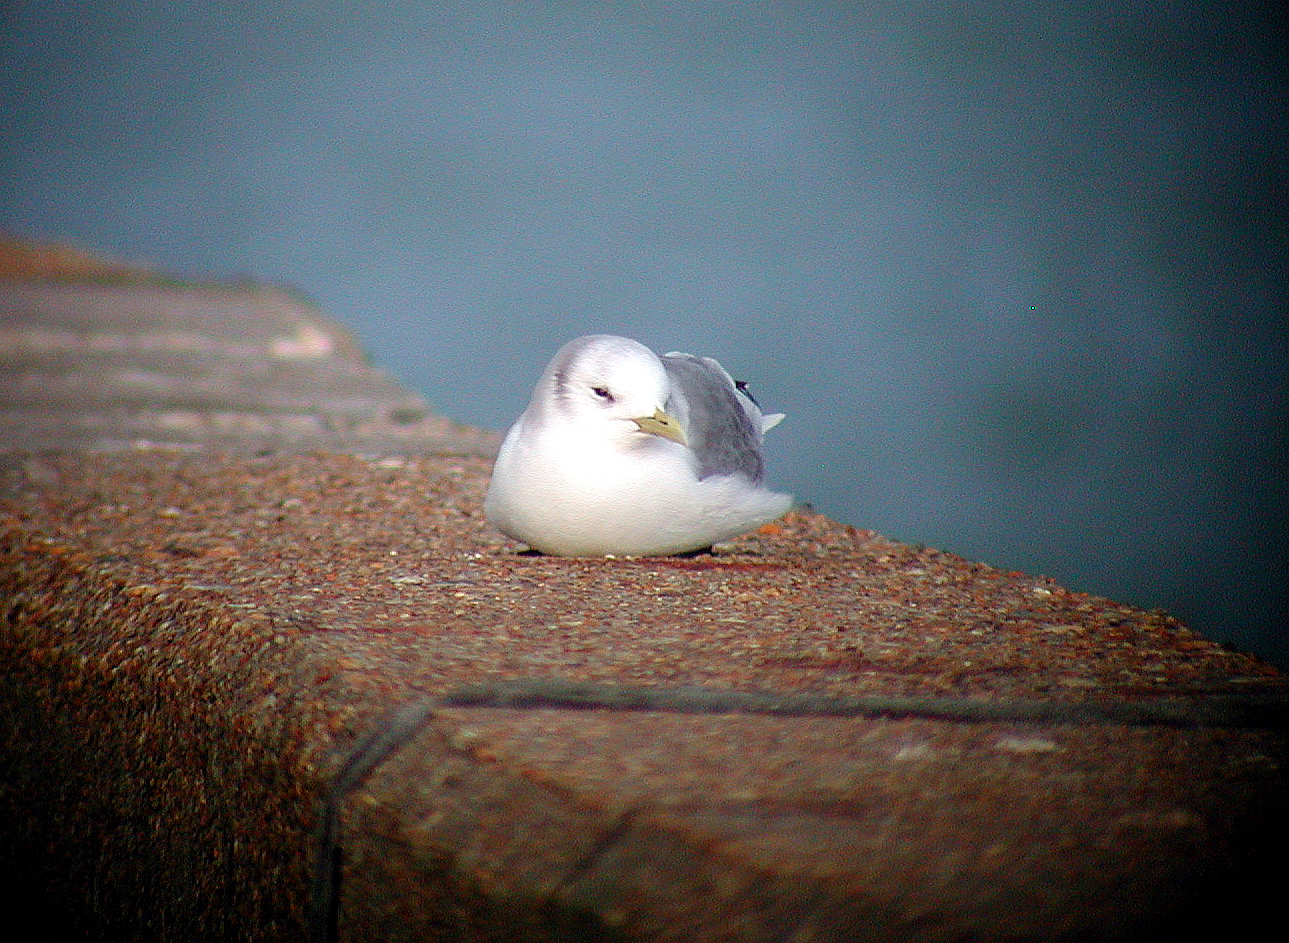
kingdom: Animalia
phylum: Chordata
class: Aves
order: Charadriiformes
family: Laridae
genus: Rissa
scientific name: Rissa tridactyla
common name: Black-legged kittiwake
